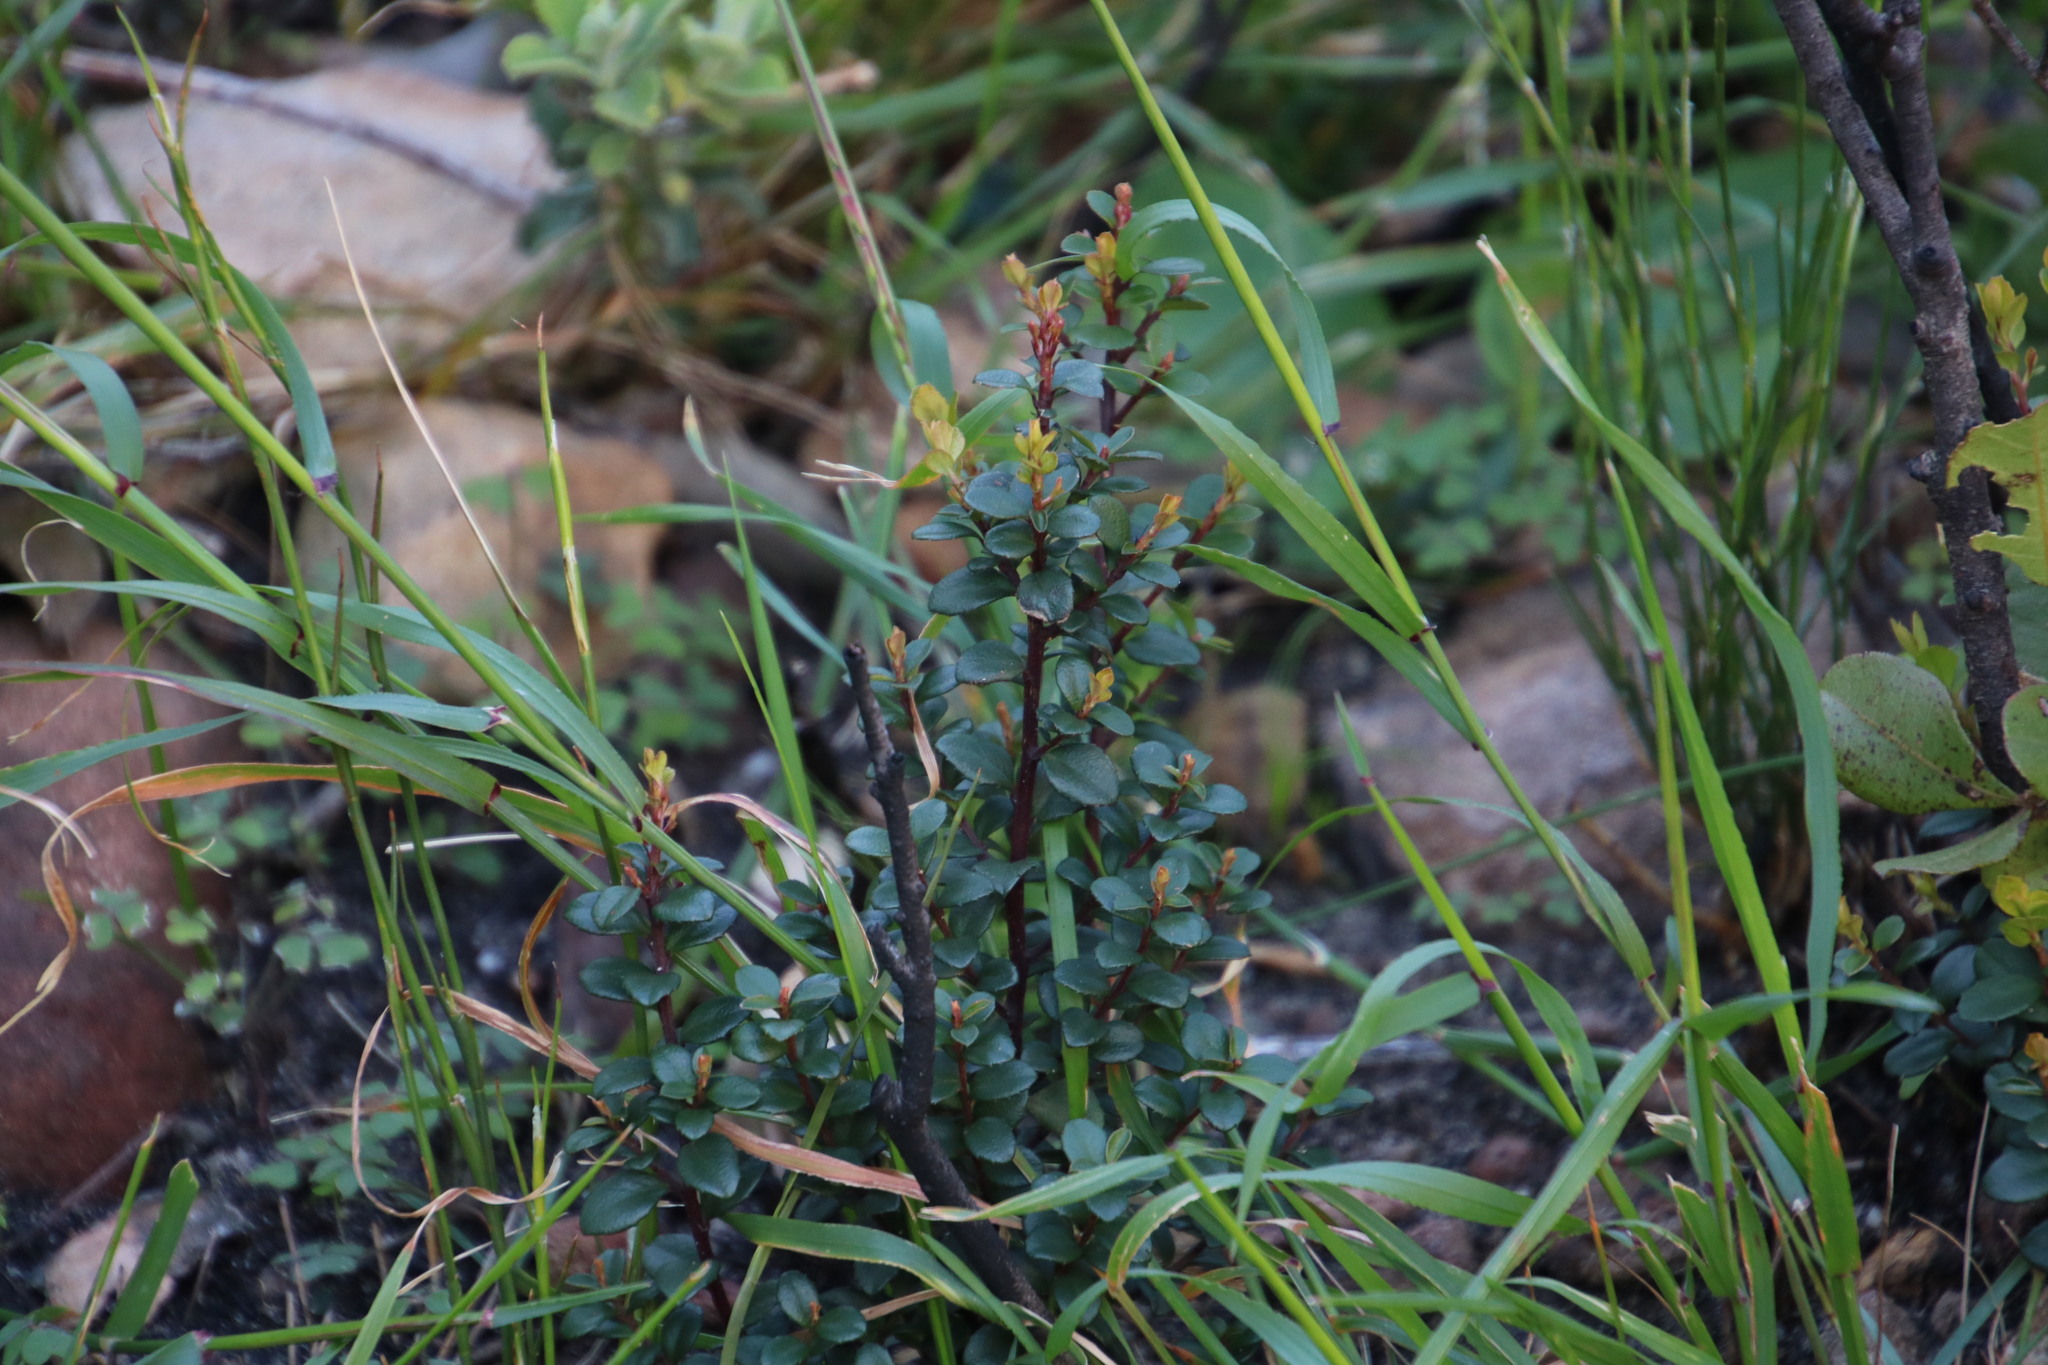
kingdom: Plantae
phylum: Tracheophyta
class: Magnoliopsida
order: Ericales
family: Primulaceae
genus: Myrsine
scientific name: Myrsine africana
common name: African-boxwood
